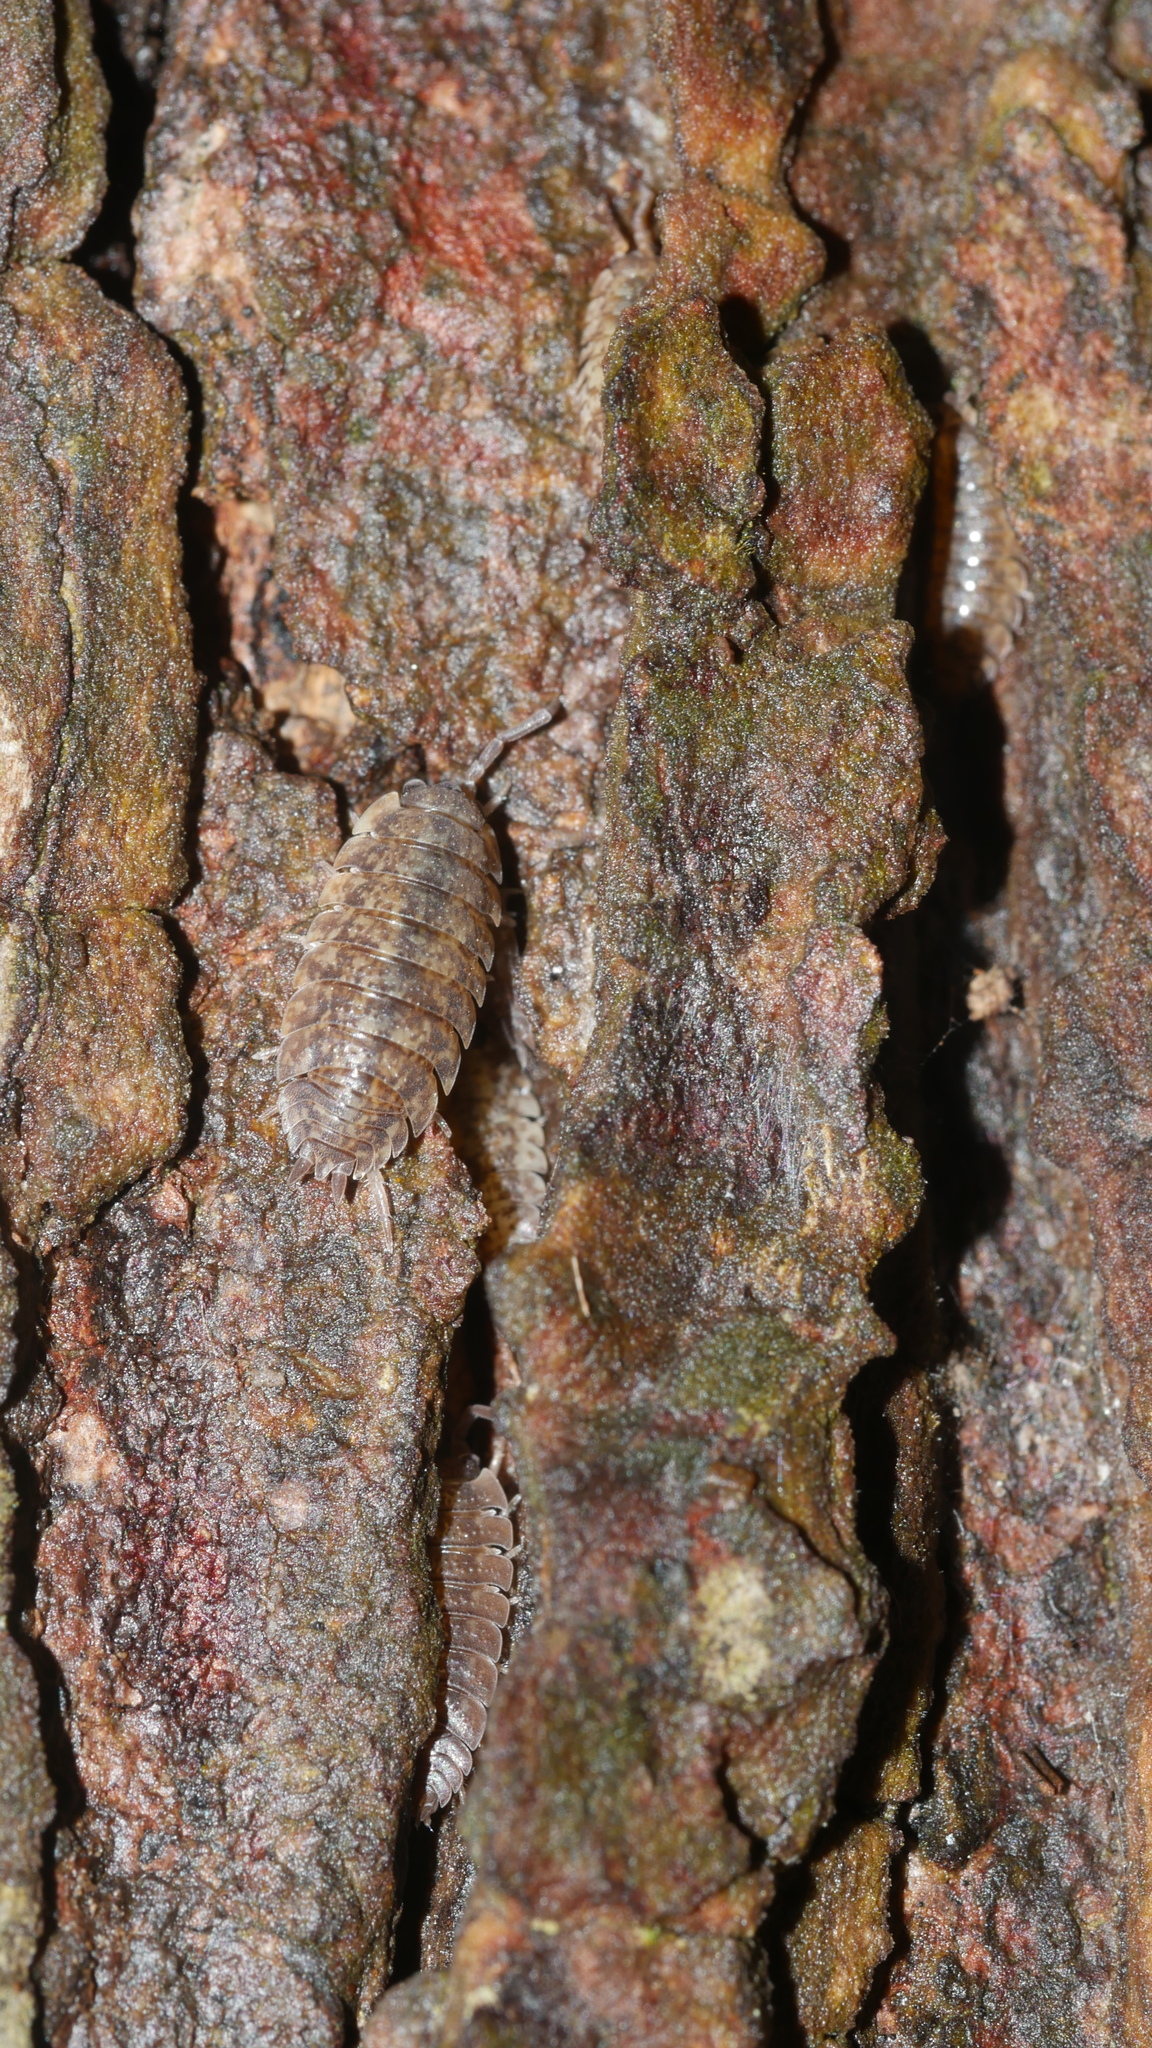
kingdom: Animalia
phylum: Arthropoda
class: Malacostraca
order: Isopoda
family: Porcellionidae
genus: Porcellio
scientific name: Porcellio scaber
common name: Common rough woodlouse
